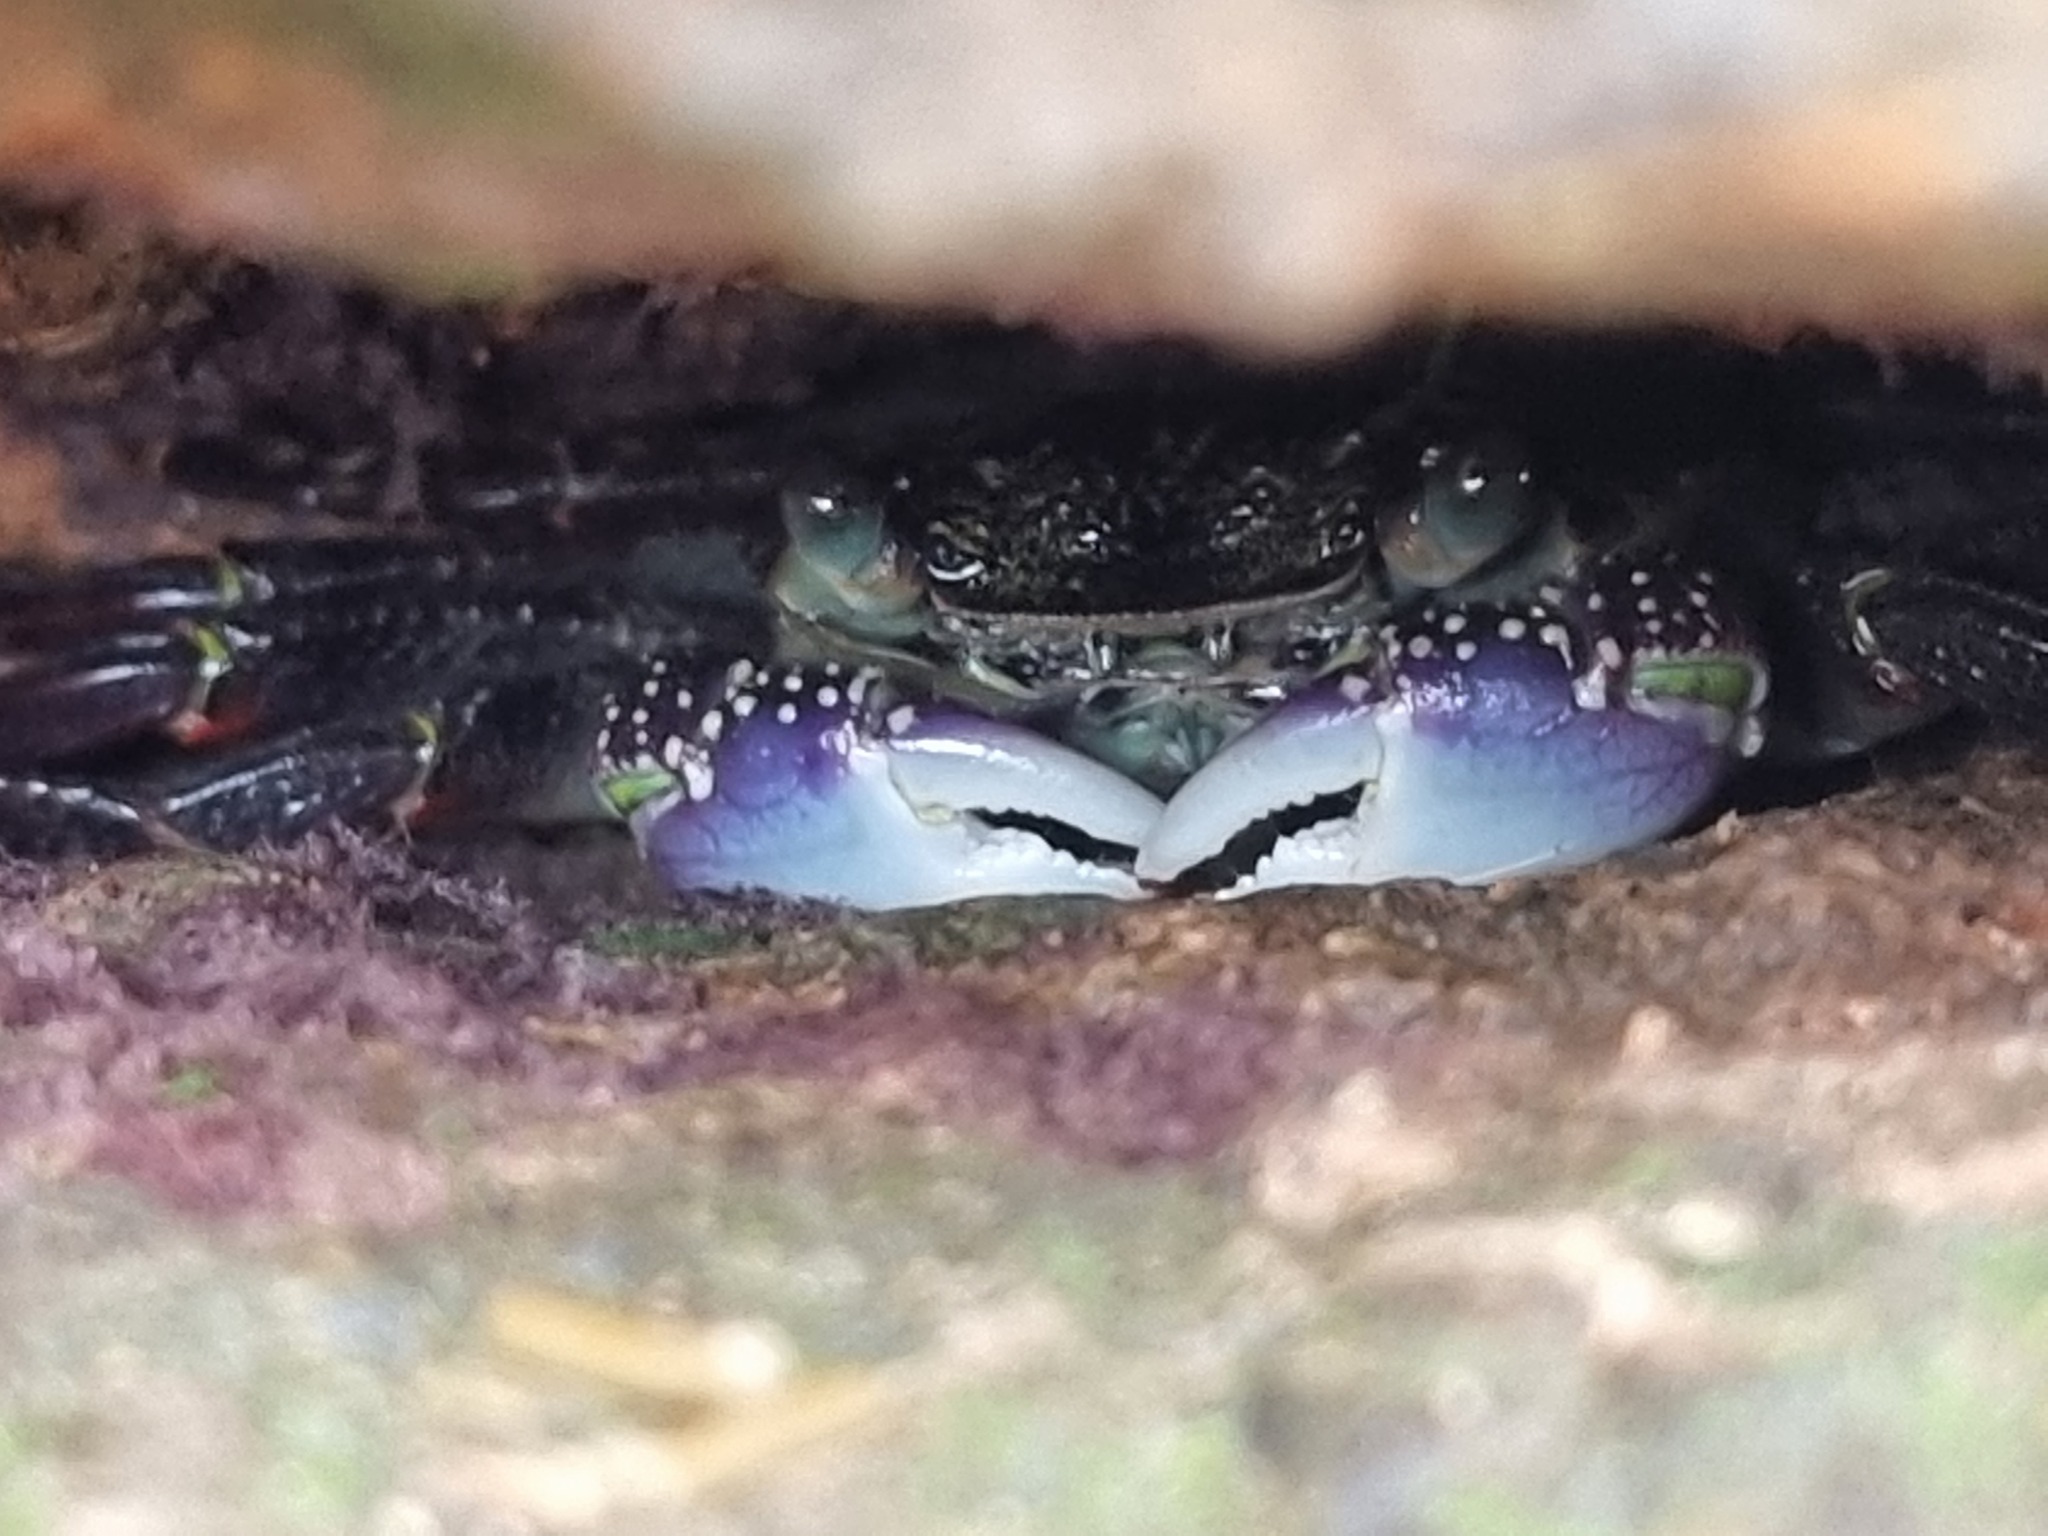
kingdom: Animalia
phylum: Arthropoda
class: Malacostraca
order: Decapoda
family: Grapsidae
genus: Leptograpsus
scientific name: Leptograpsus variegatus
